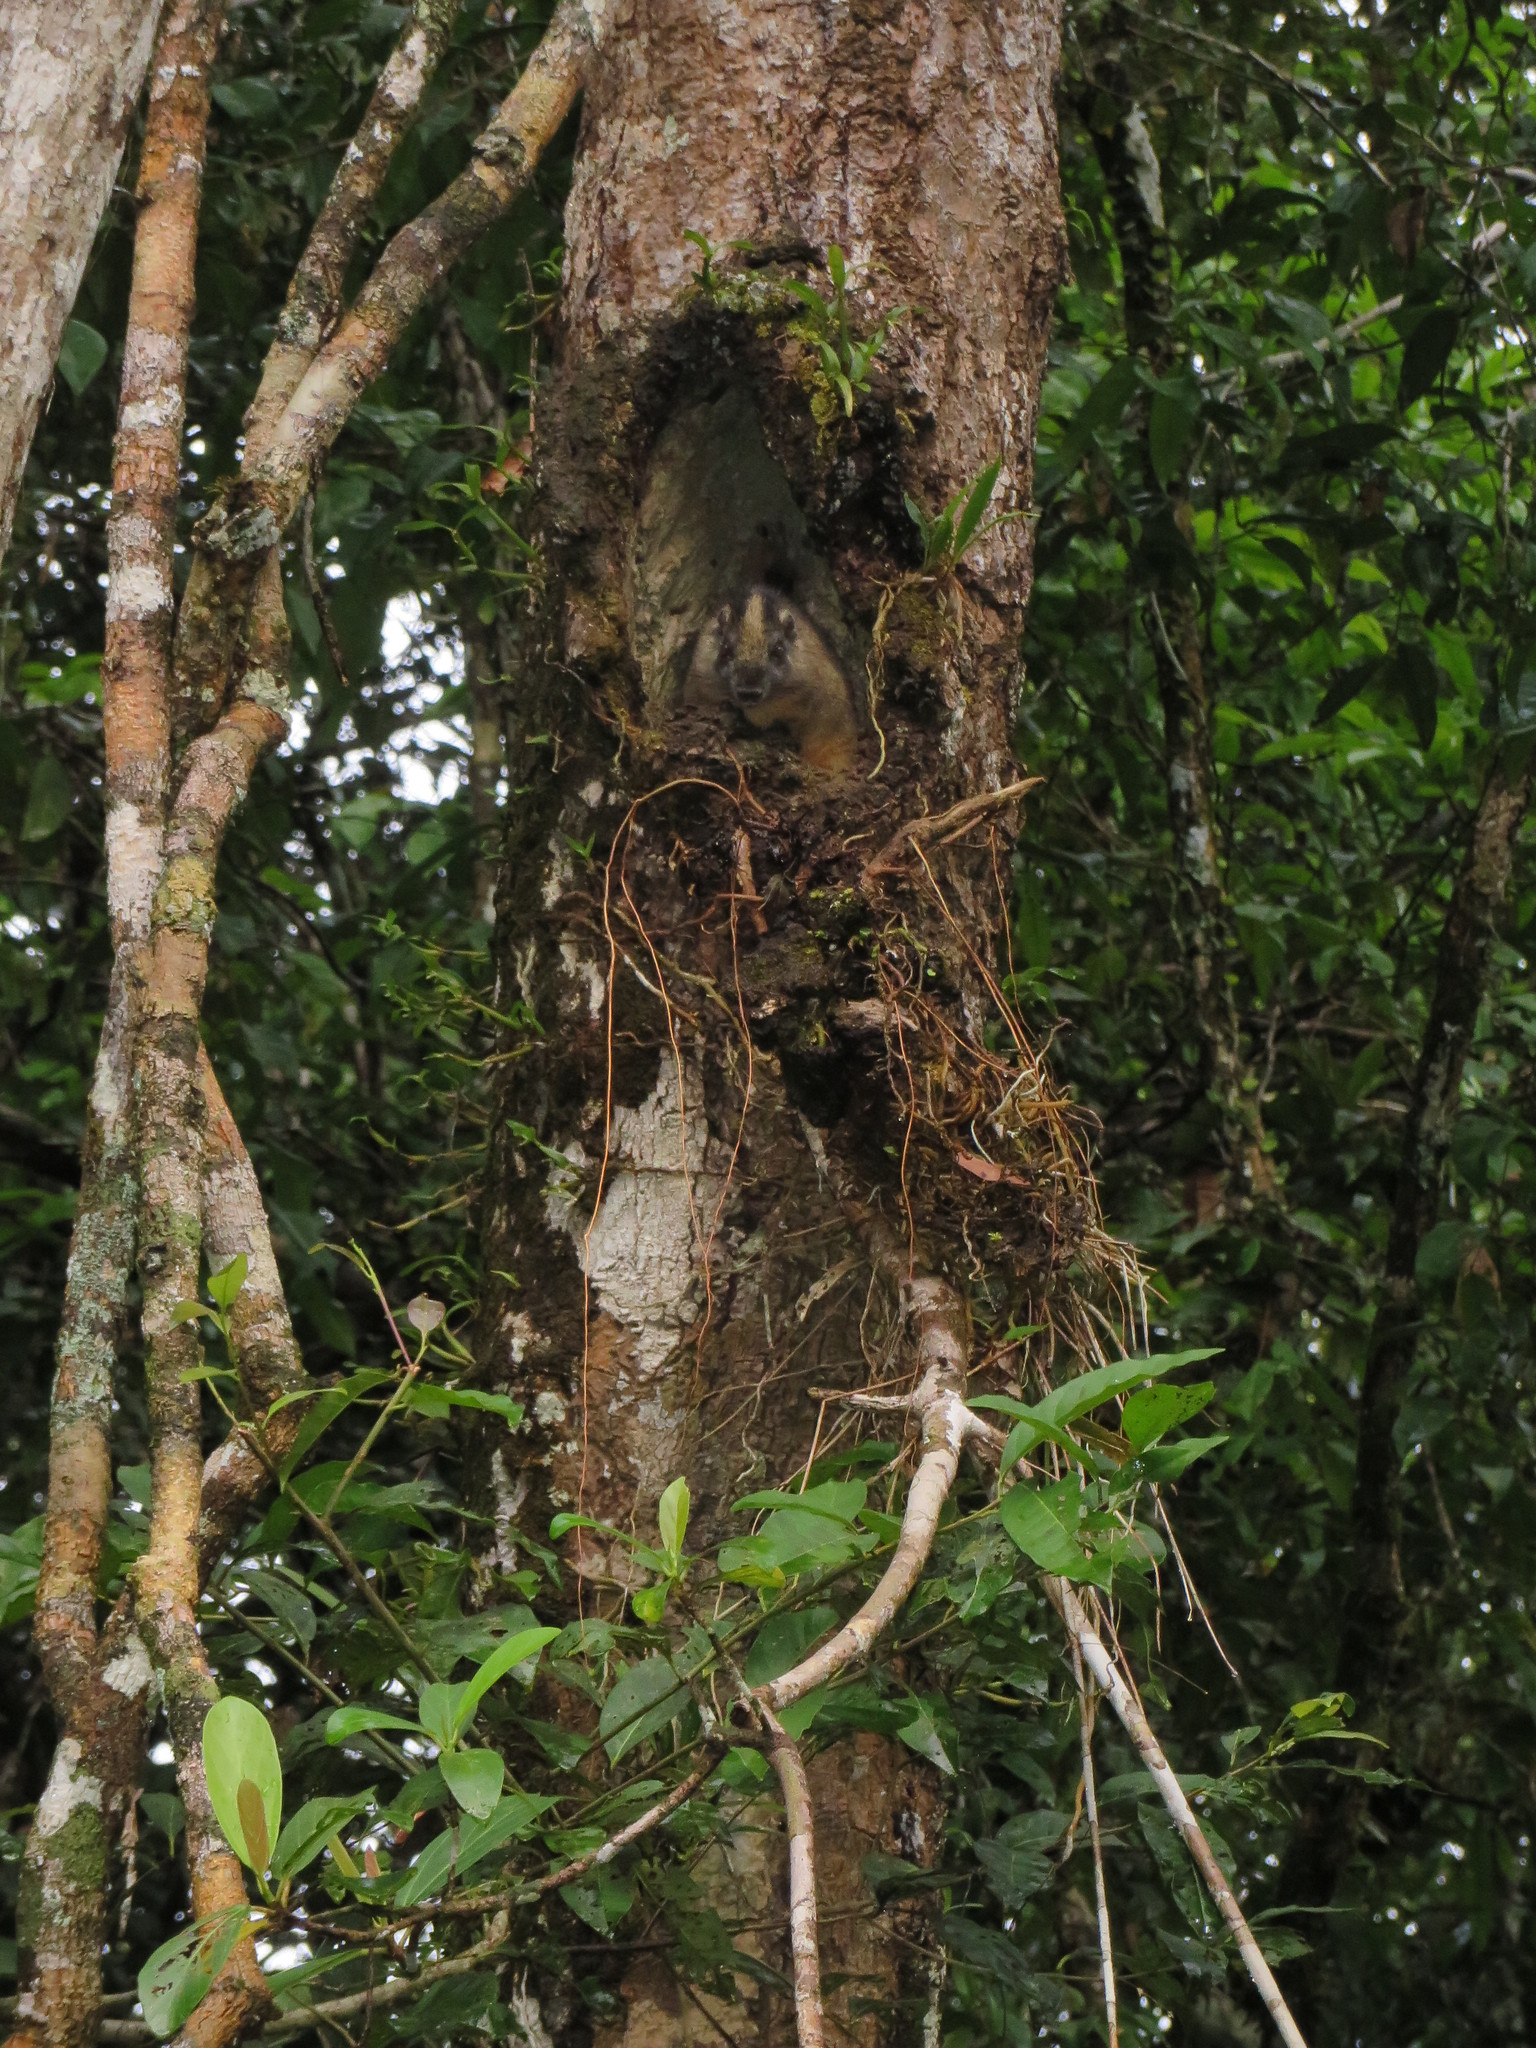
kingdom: Animalia
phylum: Chordata
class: Mammalia
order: Rodentia
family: Echimyidae
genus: Isothrix
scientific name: Isothrix bistriata
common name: Yellow-crowned brush-tailed rat
